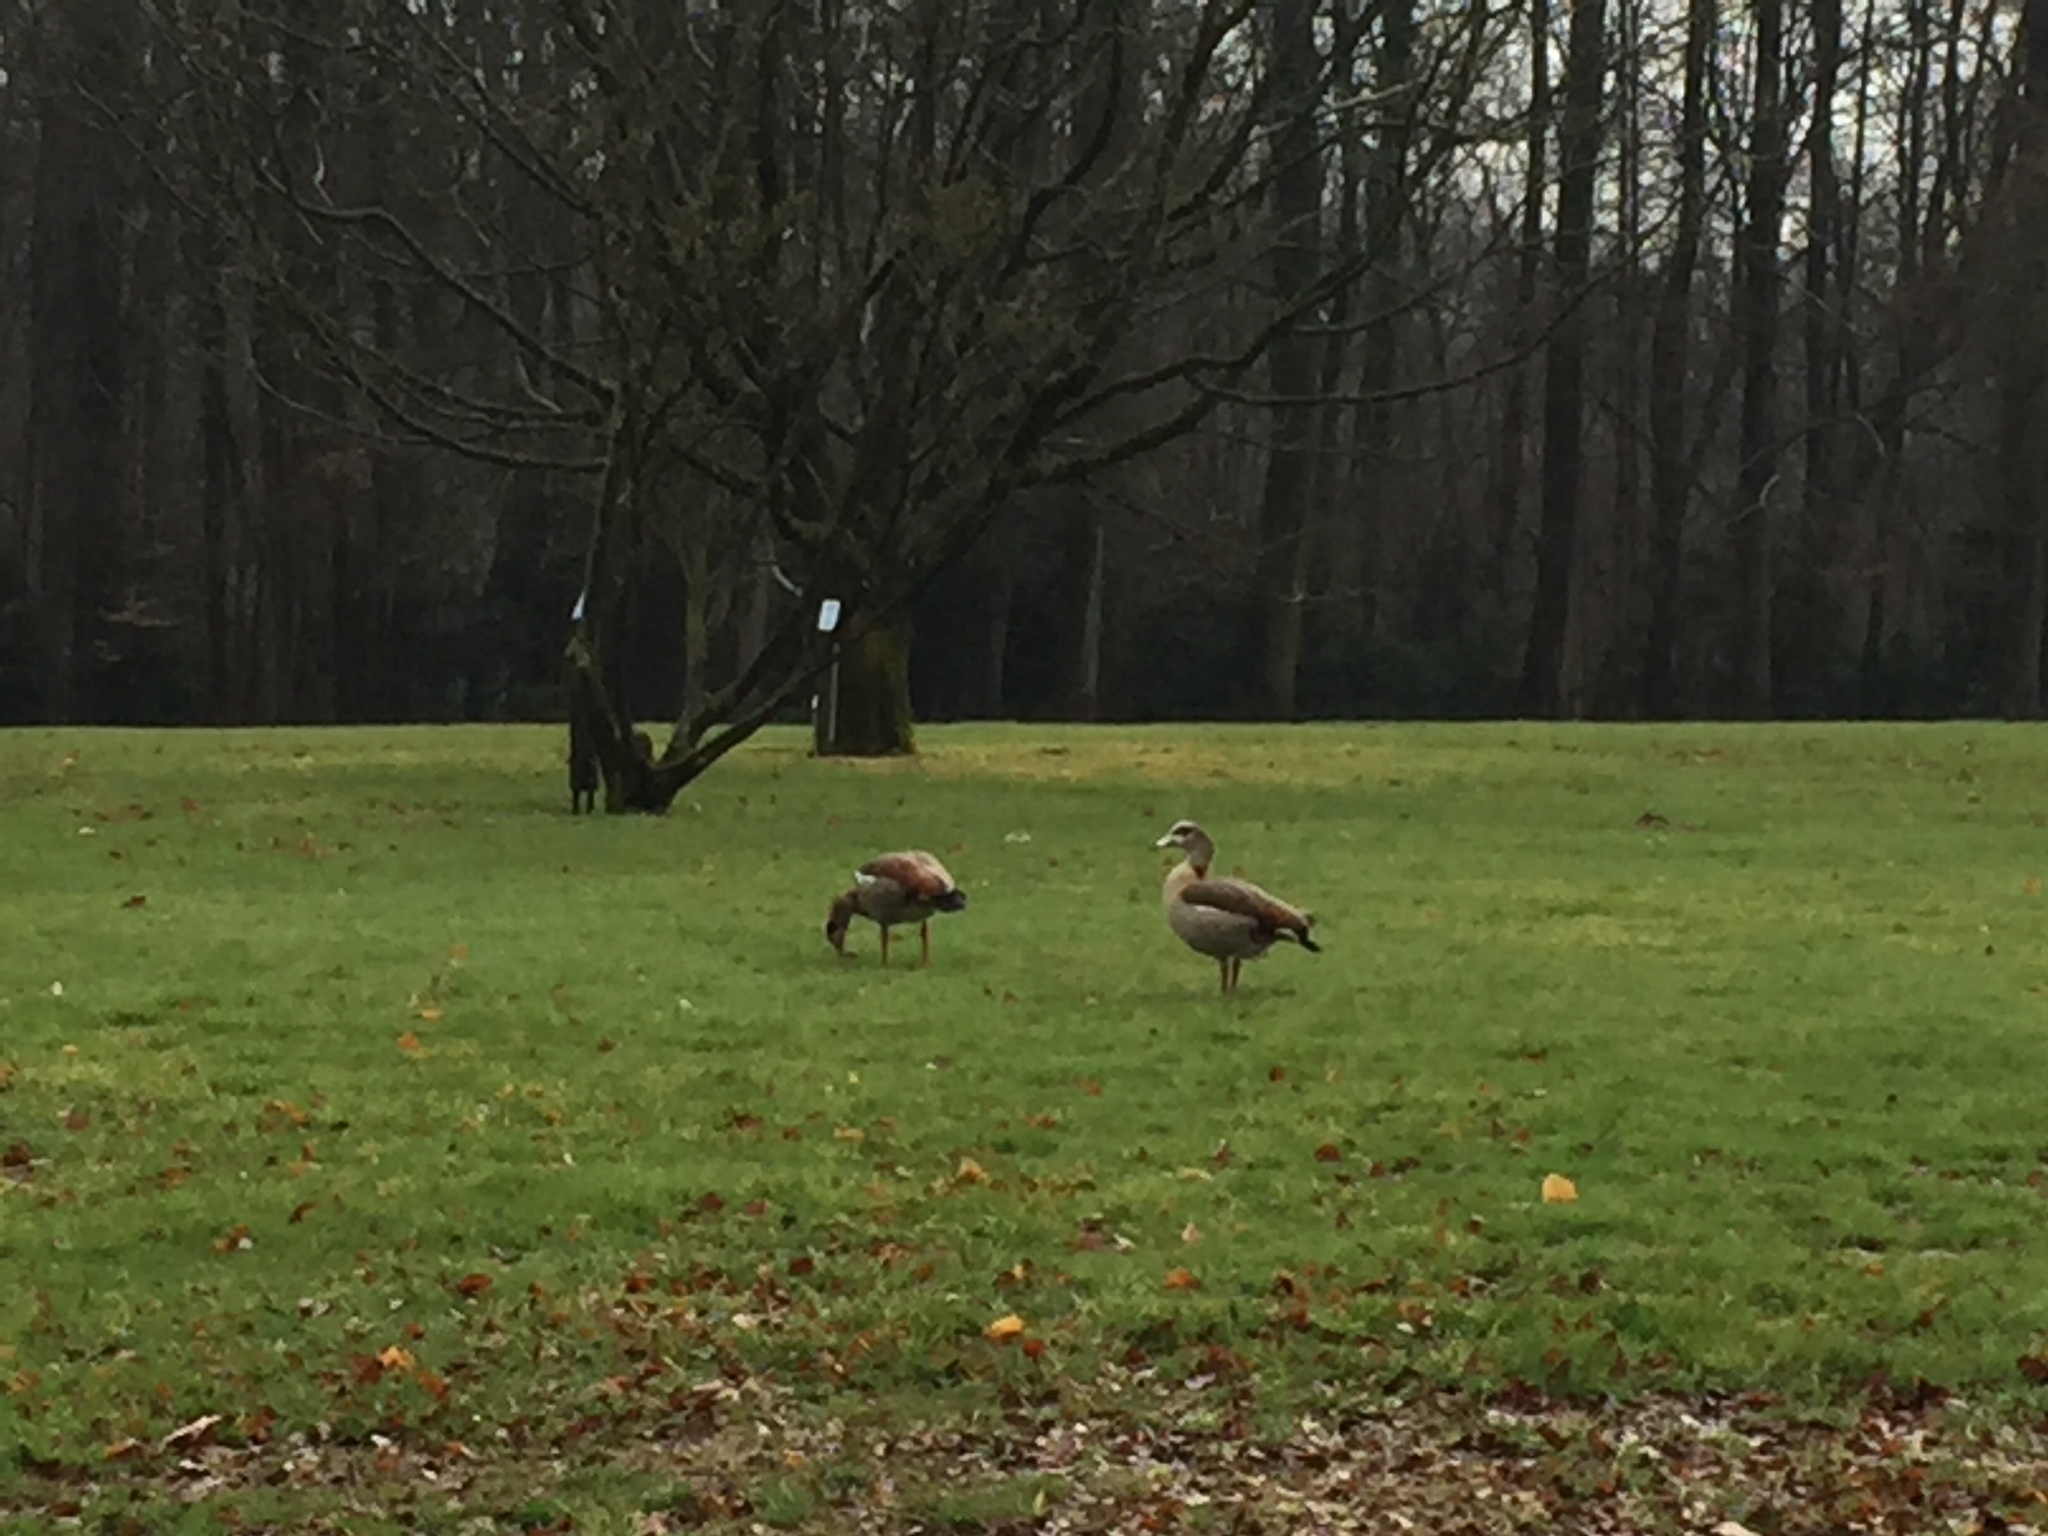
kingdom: Animalia
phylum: Chordata
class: Aves
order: Anseriformes
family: Anatidae
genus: Alopochen
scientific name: Alopochen aegyptiaca
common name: Egyptian goose
